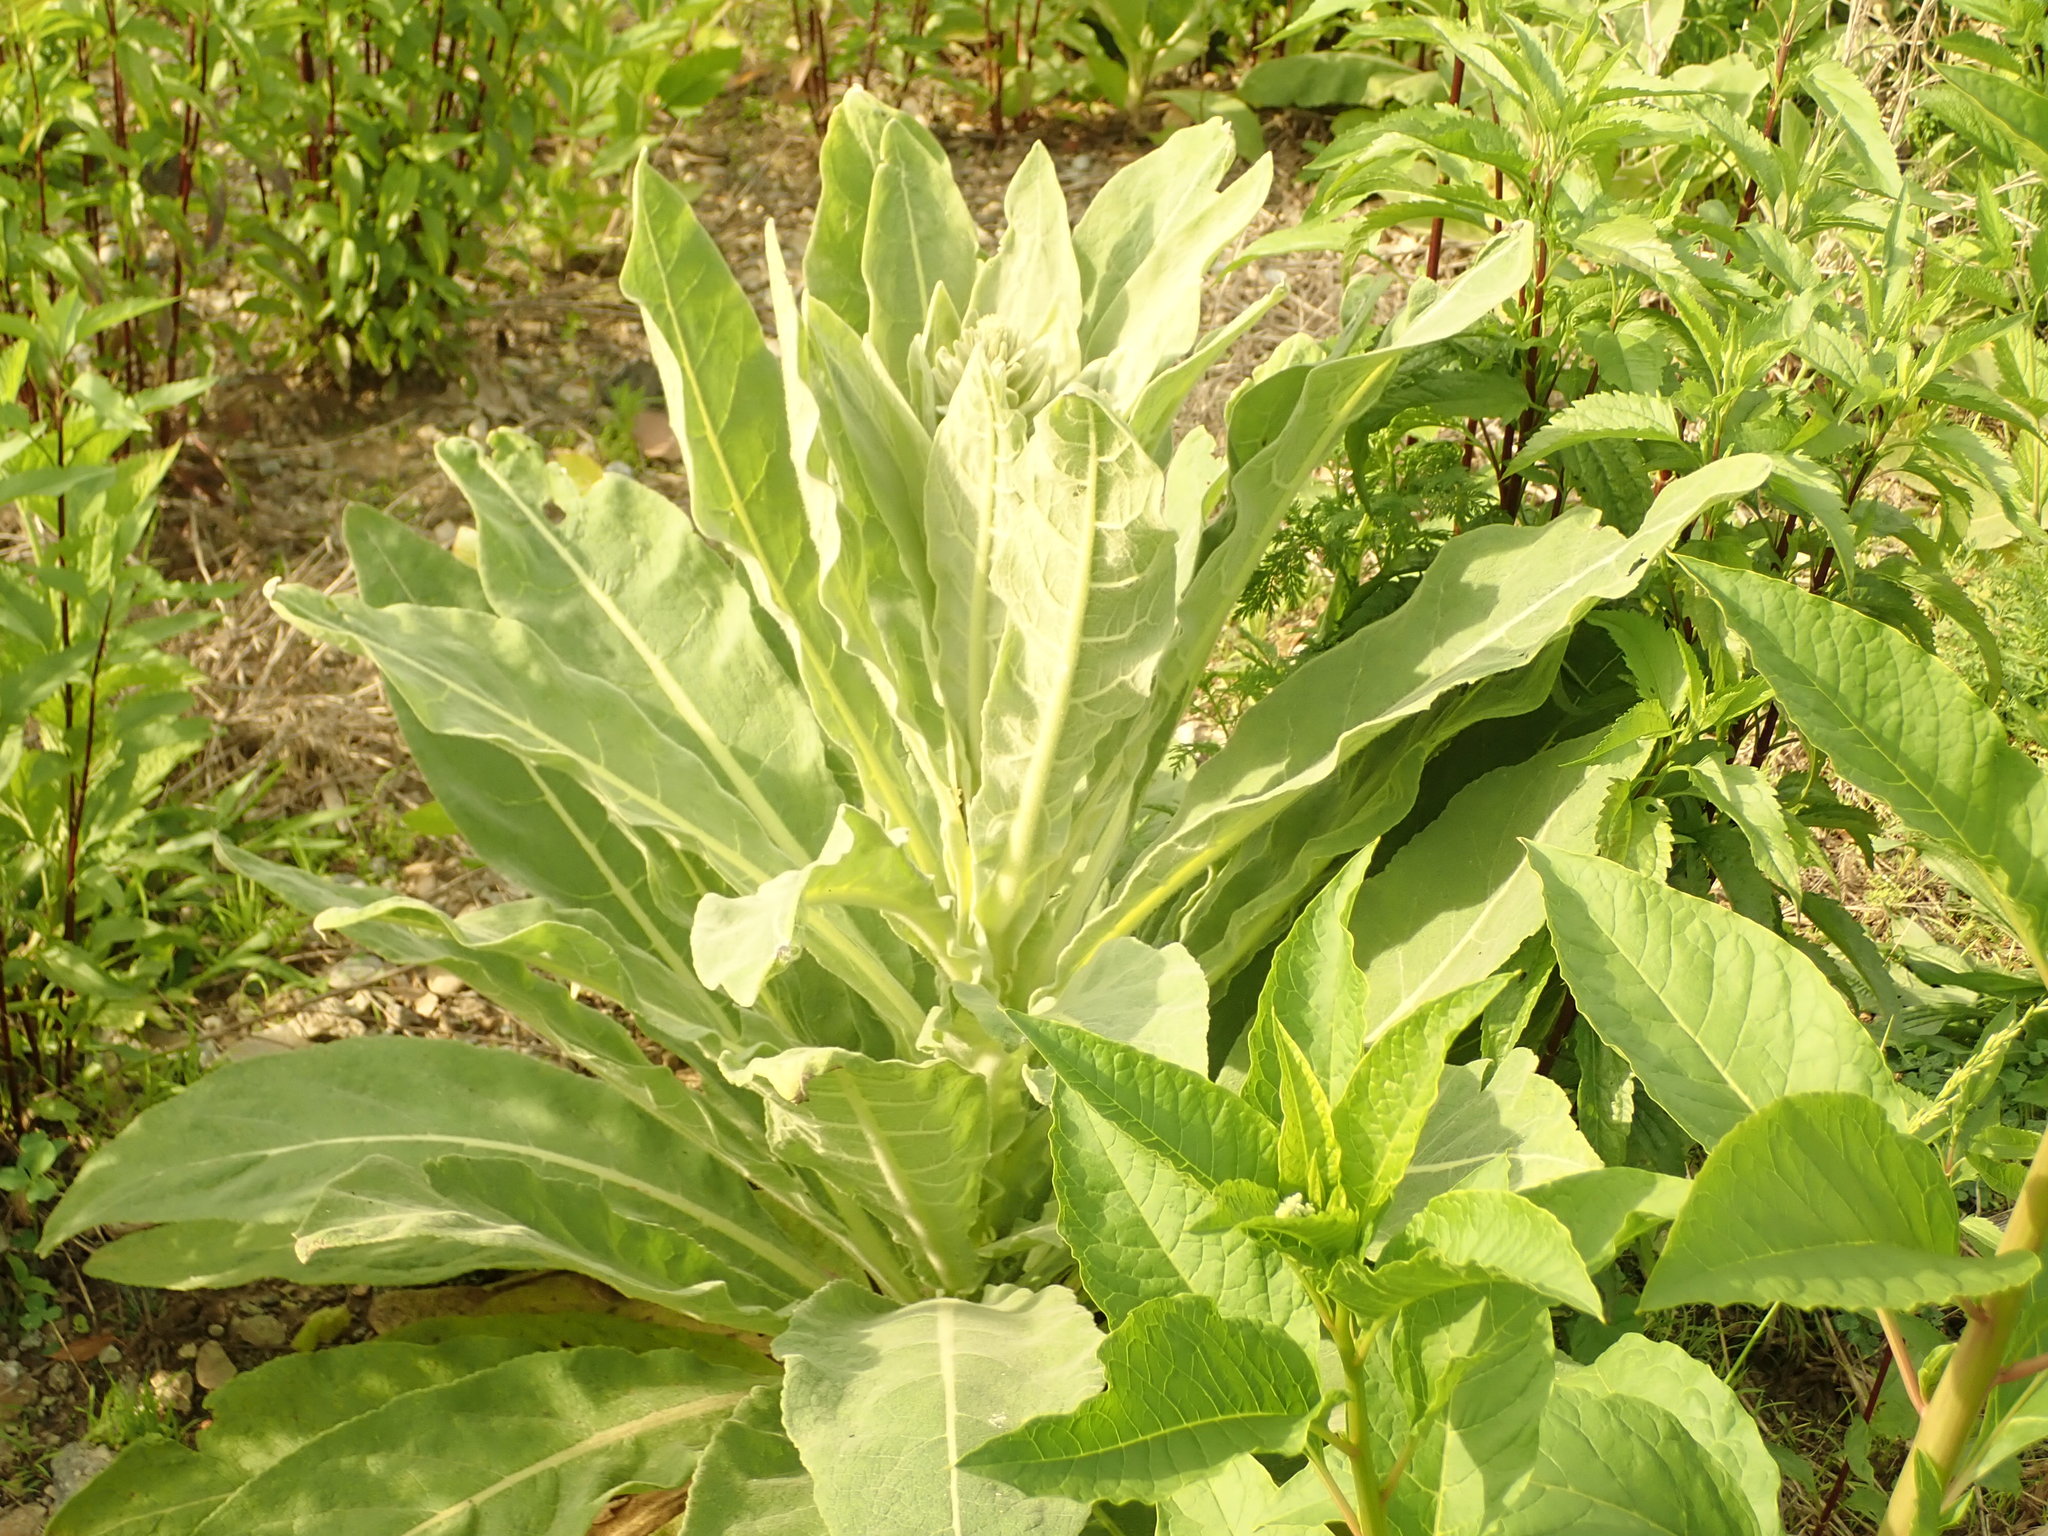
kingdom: Plantae
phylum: Tracheophyta
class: Magnoliopsida
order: Lamiales
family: Scrophulariaceae
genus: Verbascum
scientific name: Verbascum thapsus
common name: Common mullein
